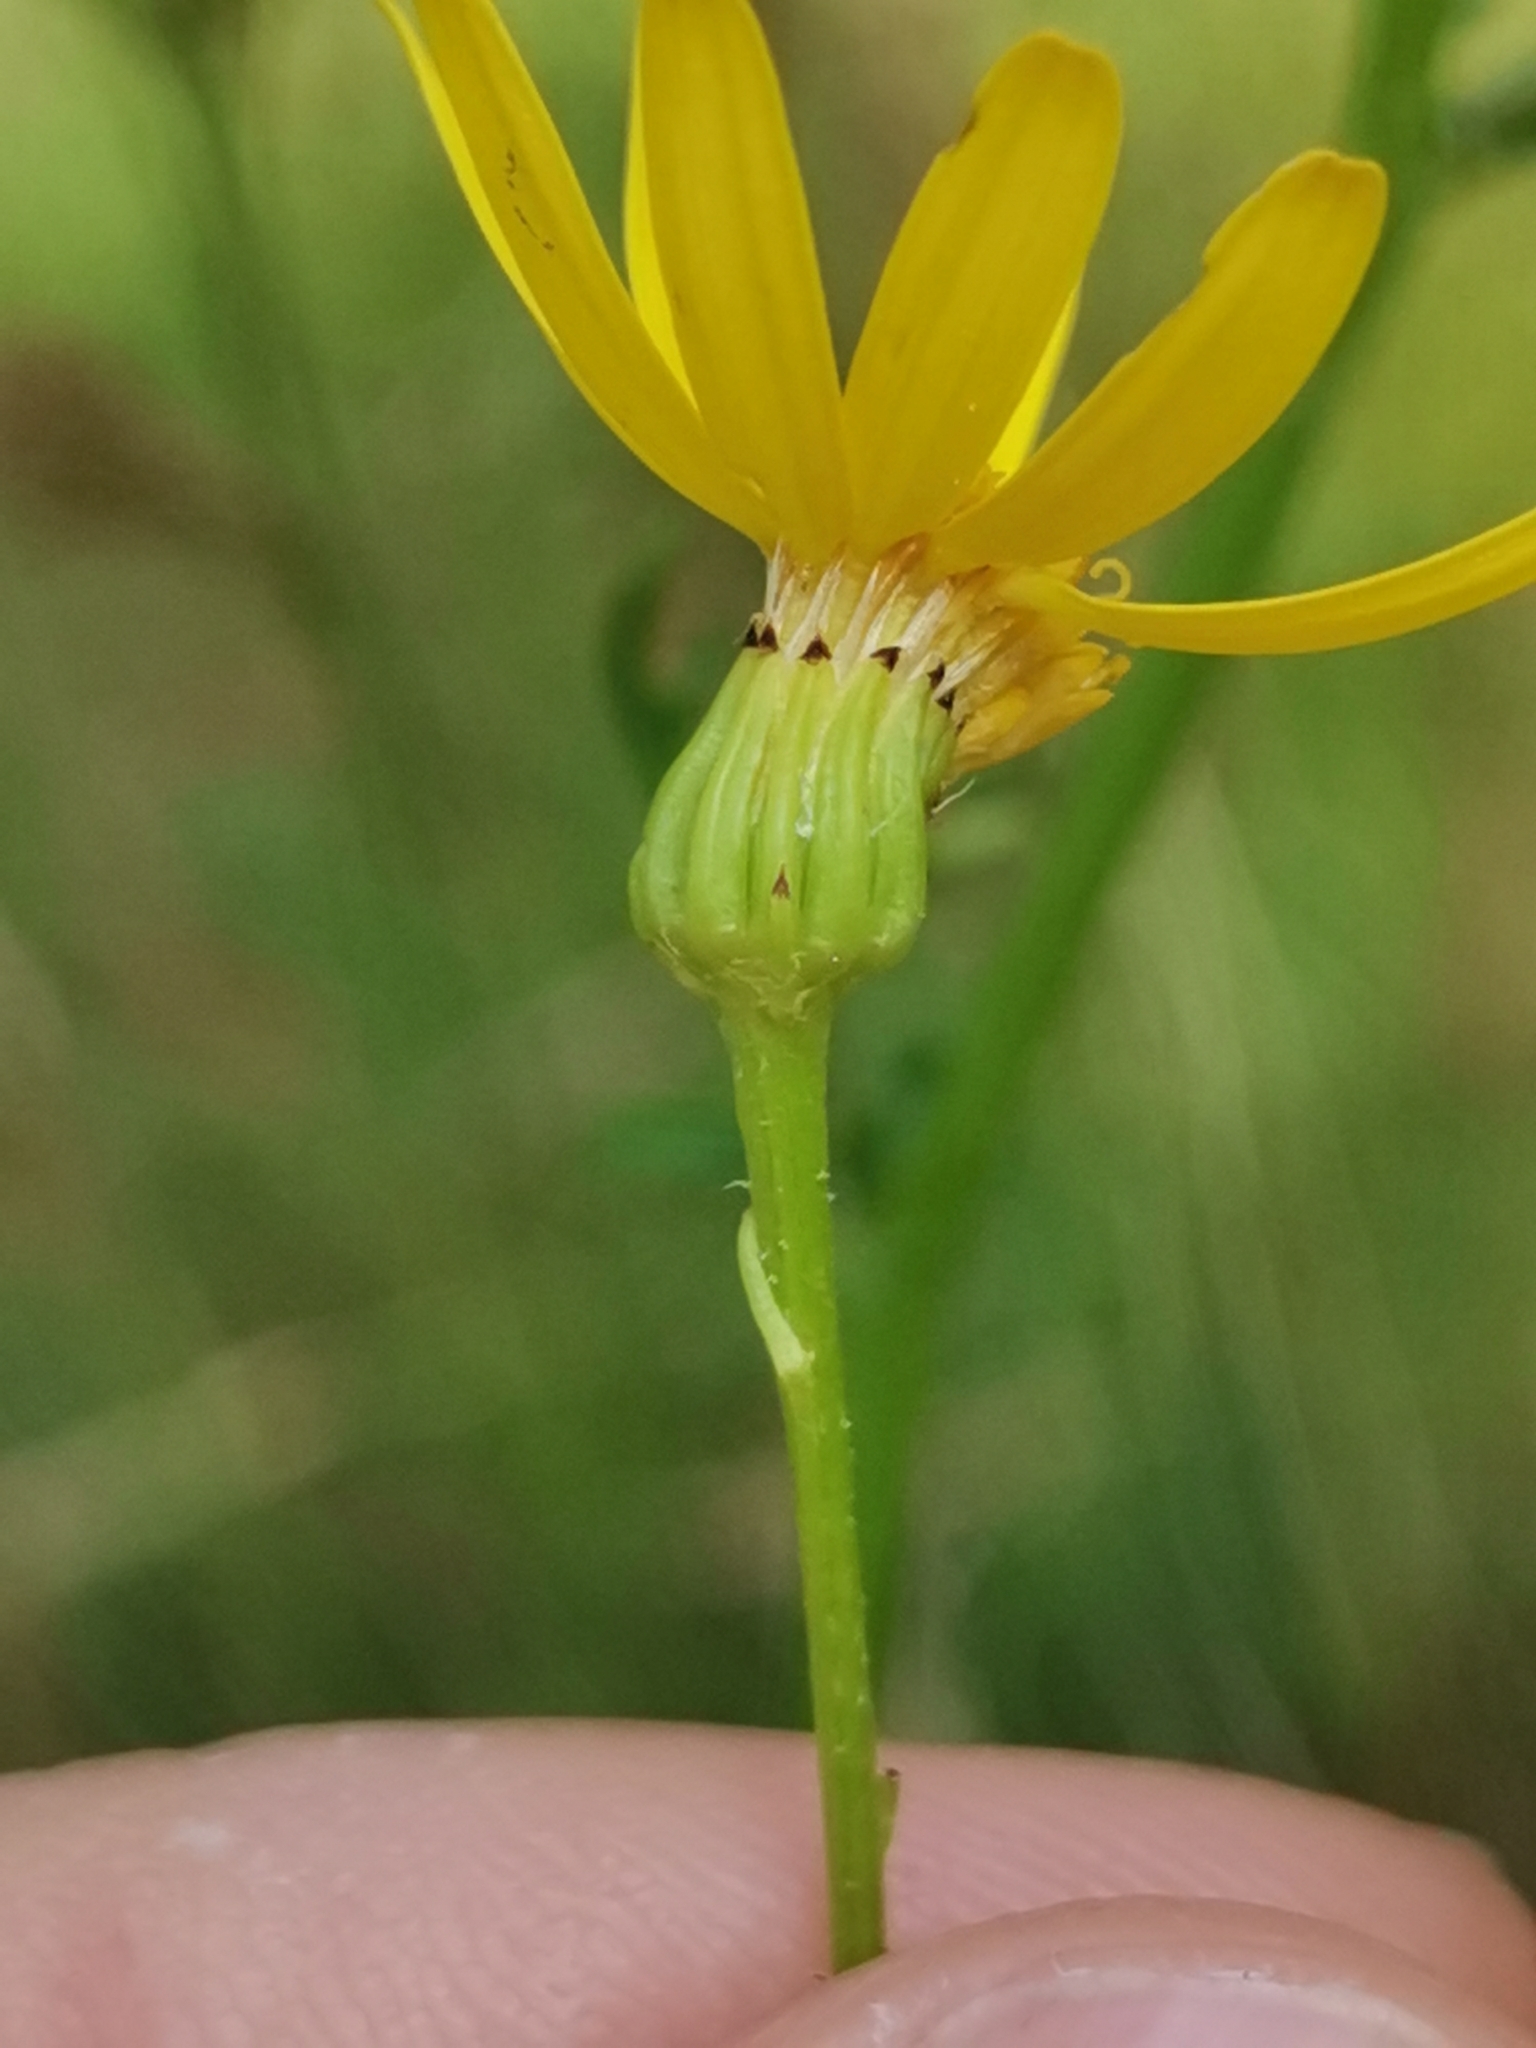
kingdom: Plantae
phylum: Tracheophyta
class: Magnoliopsida
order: Asterales
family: Asteraceae
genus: Jacobaea
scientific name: Jacobaea erucifolia
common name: Hoary ragwort
